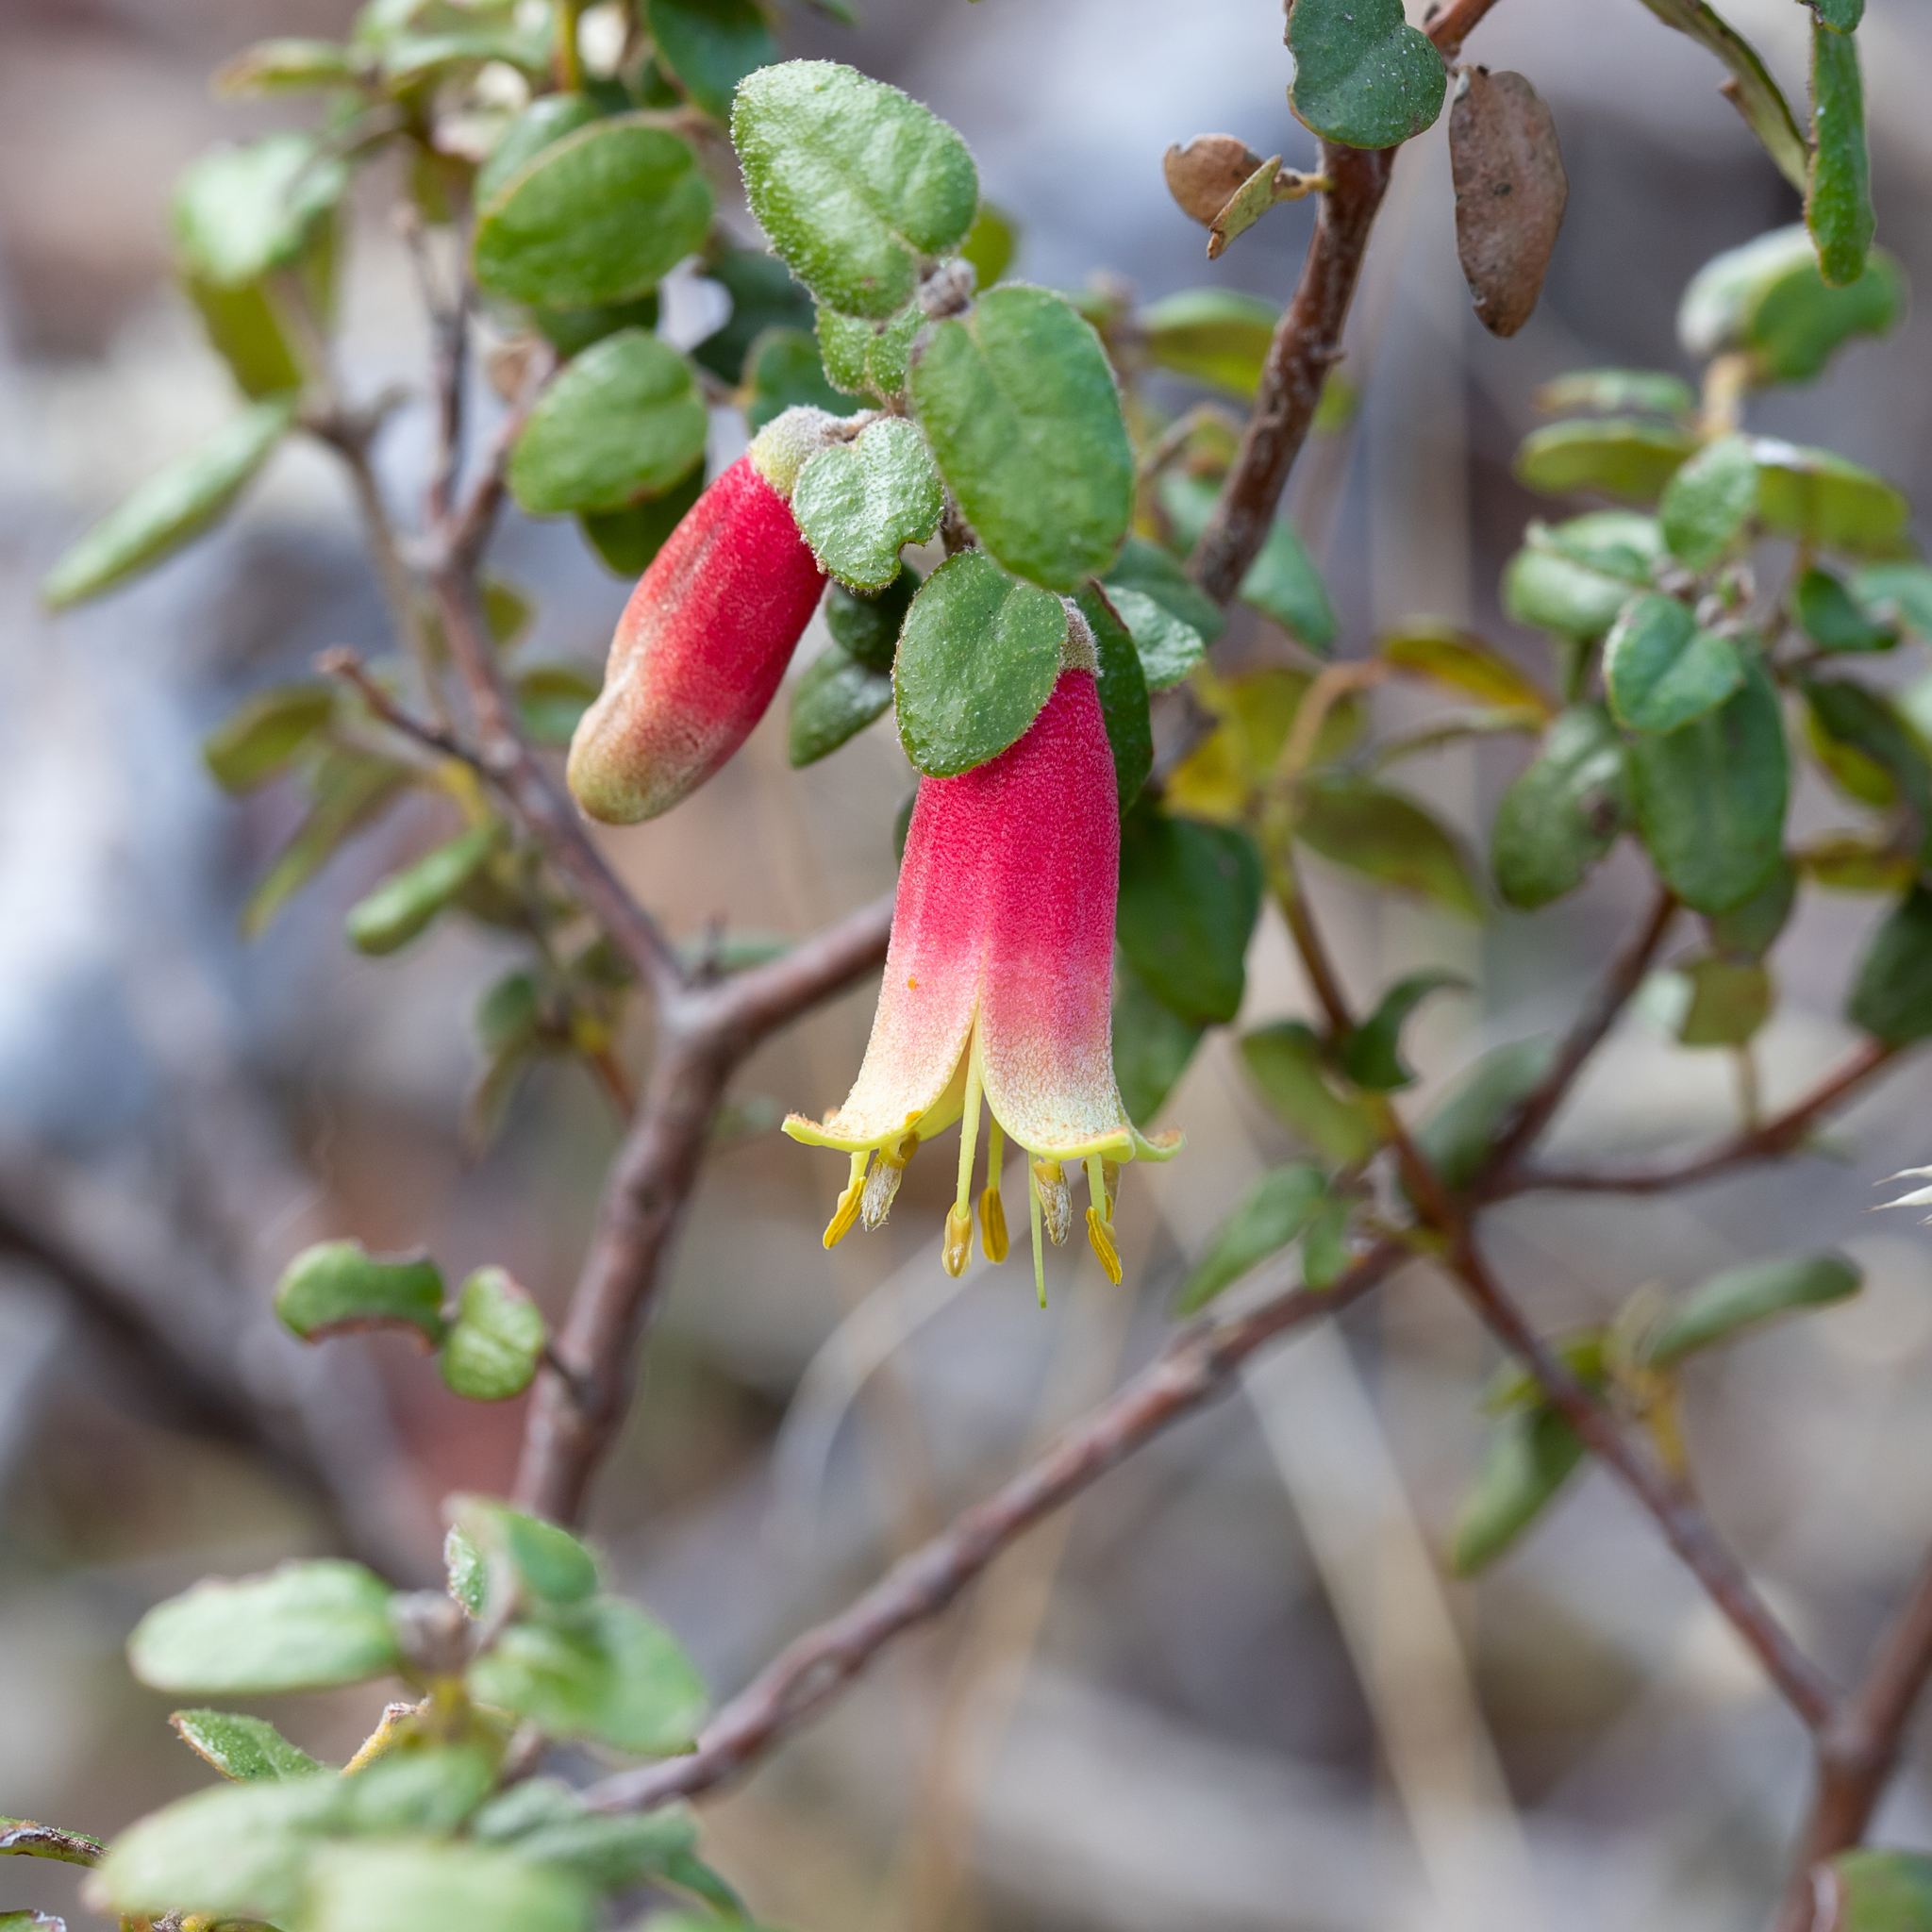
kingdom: Plantae
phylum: Tracheophyta
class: Magnoliopsida
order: Sapindales
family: Rutaceae
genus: Correa
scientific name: Correa reflexa
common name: Common correa
